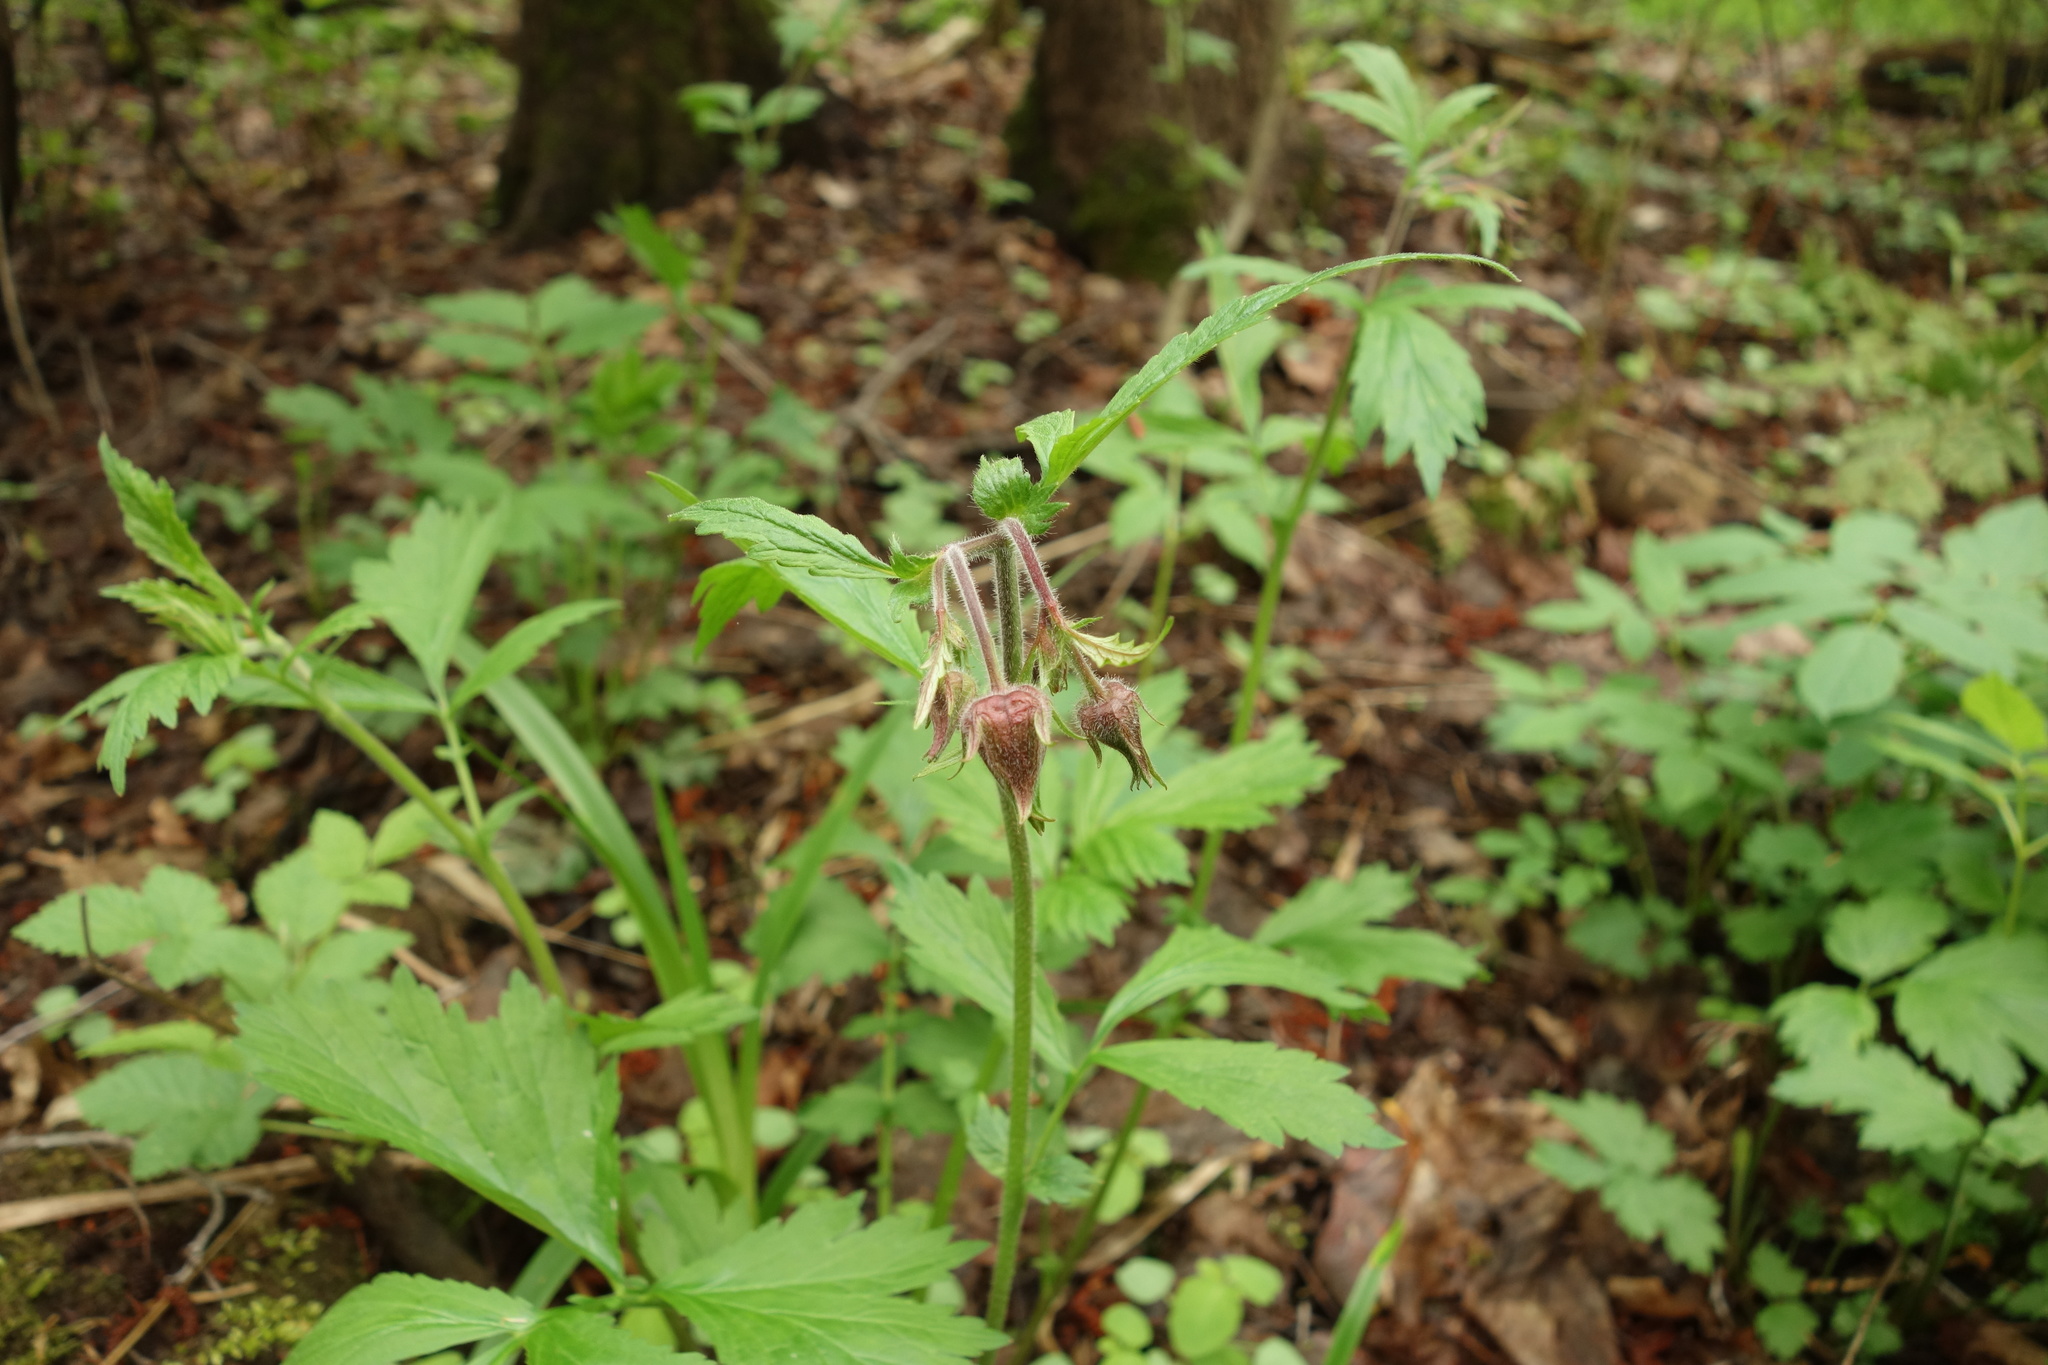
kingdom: Plantae
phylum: Tracheophyta
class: Magnoliopsida
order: Rosales
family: Rosaceae
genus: Geum
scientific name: Geum rivale
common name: Water avens
